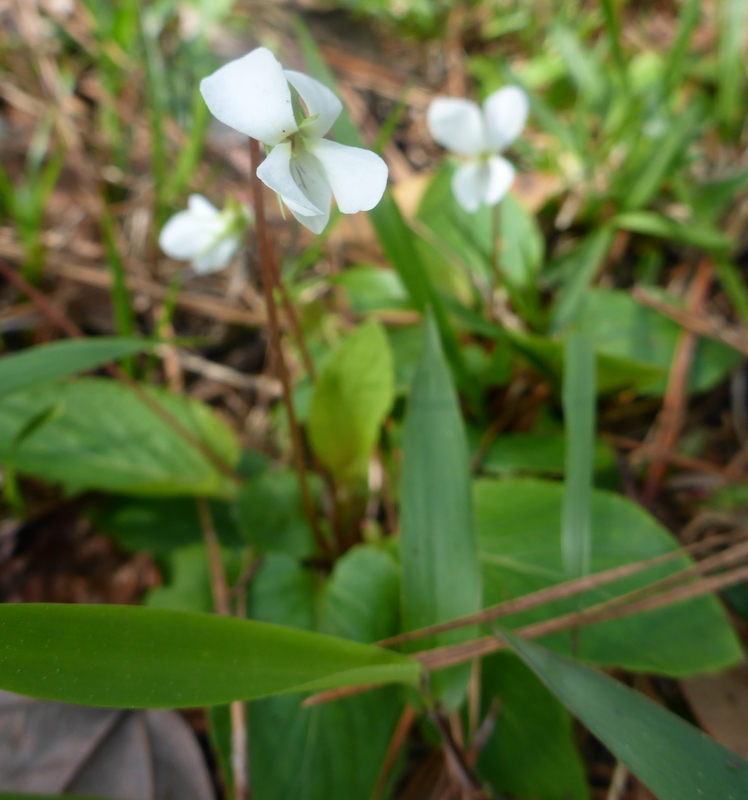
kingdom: Plantae
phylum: Tracheophyta
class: Magnoliopsida
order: Malpighiales
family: Violaceae
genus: Viola
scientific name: Viola primulifolia
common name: Primrose-leaf violet
